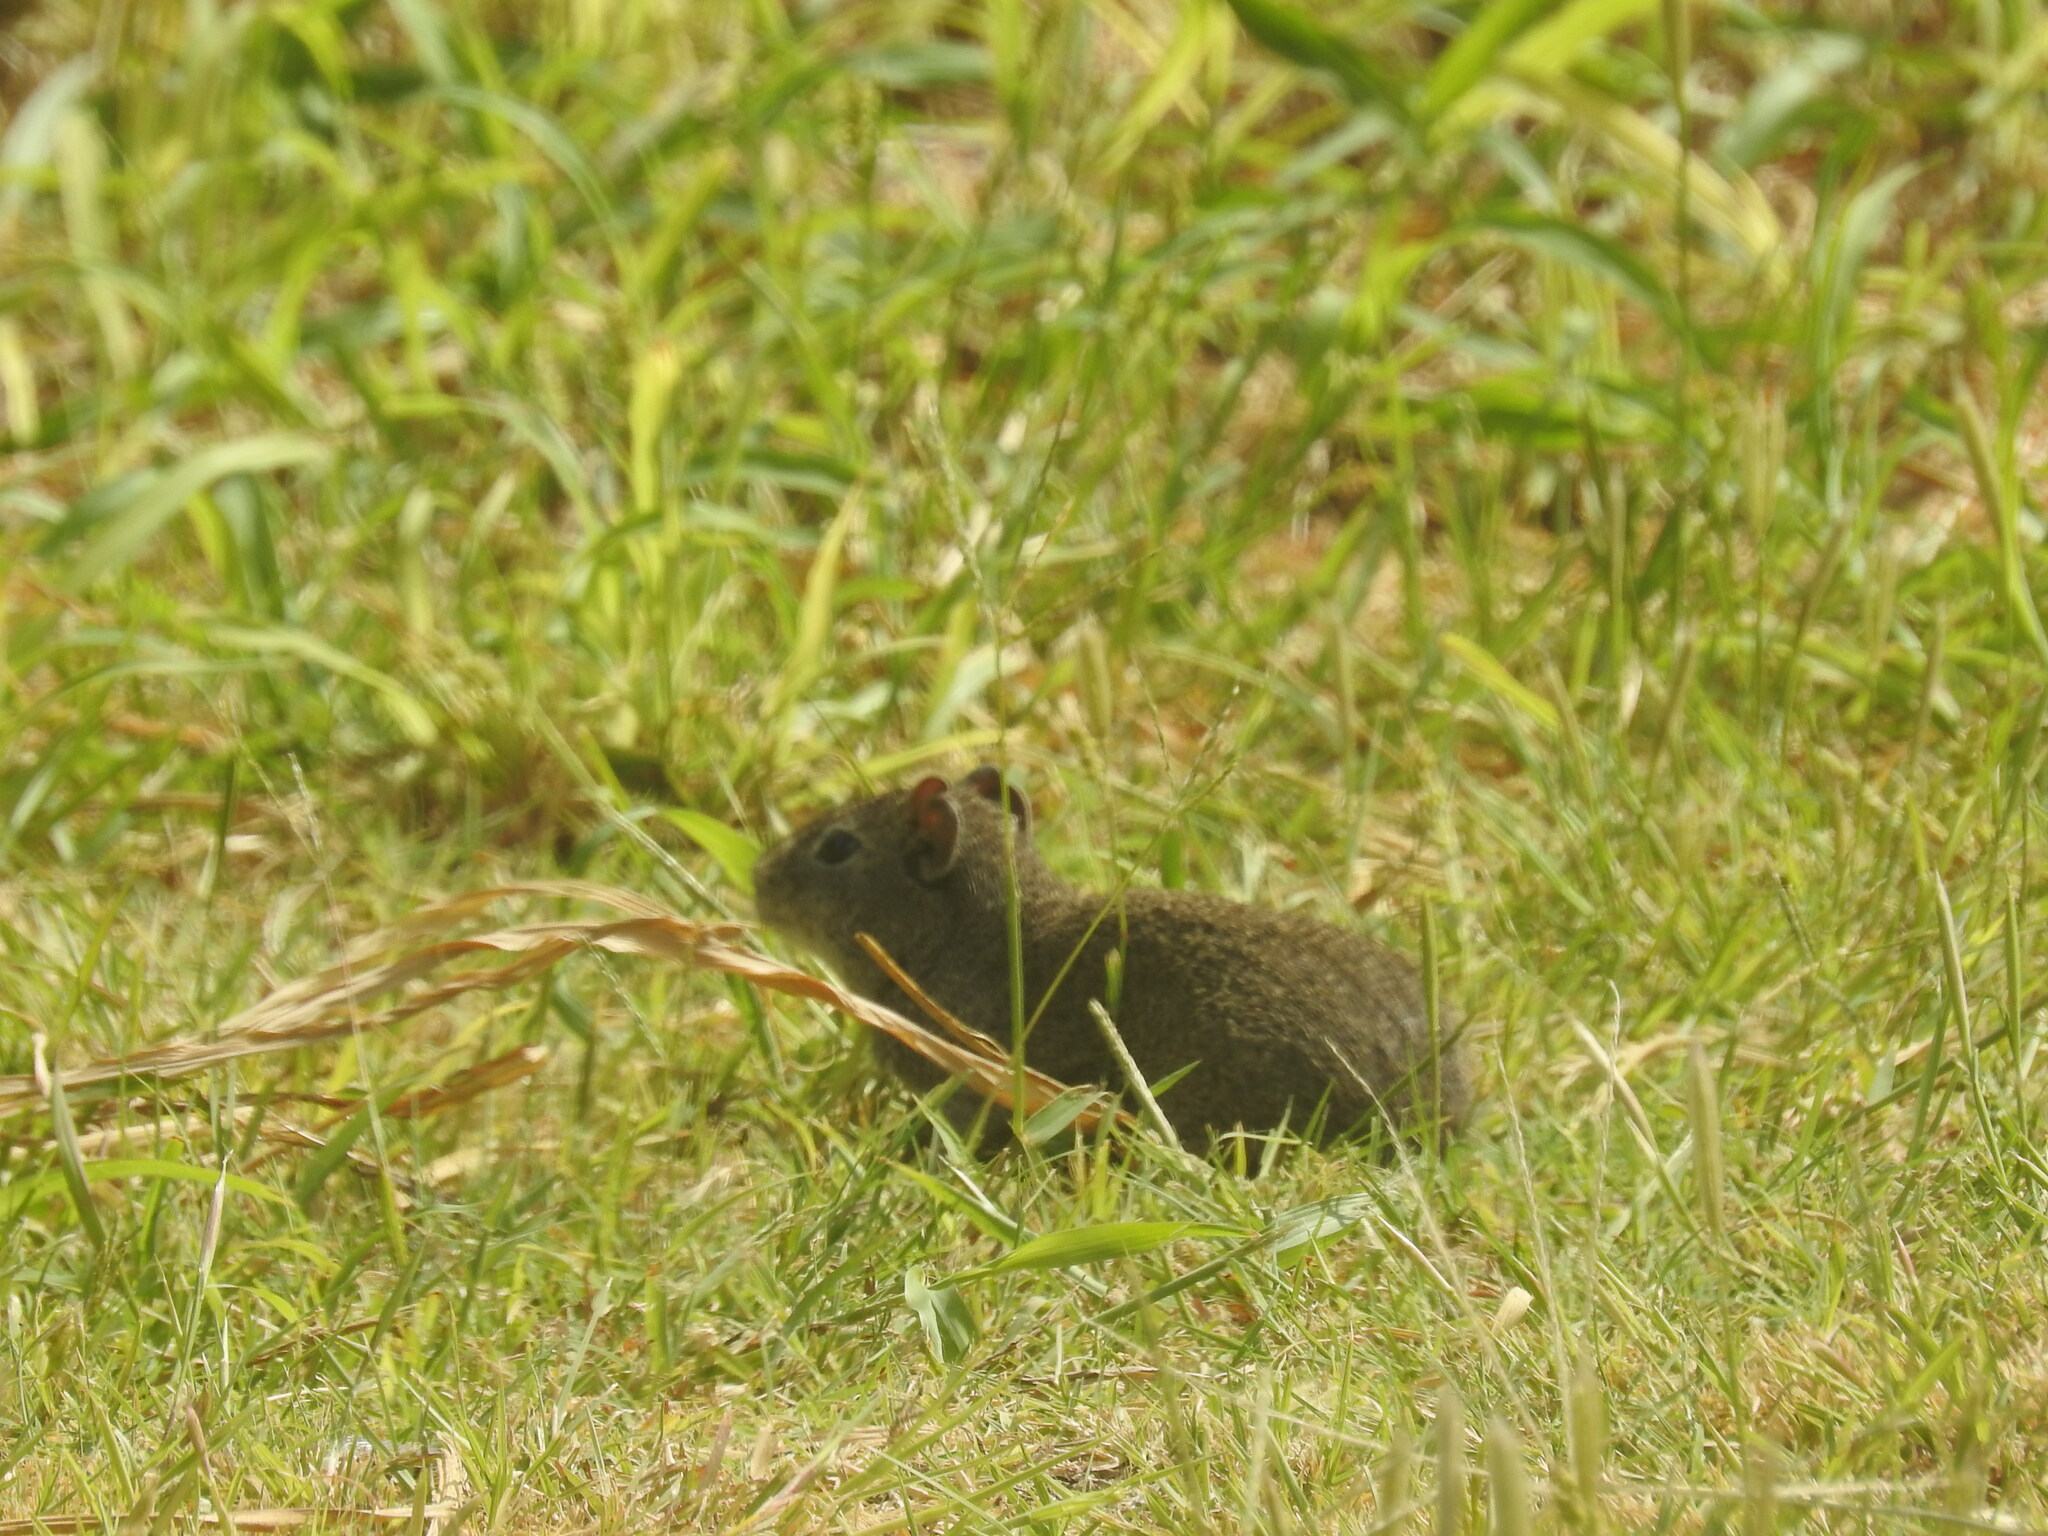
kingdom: Animalia
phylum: Chordata
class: Mammalia
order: Rodentia
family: Caviidae
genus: Cavia
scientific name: Cavia aperea
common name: Brazilian guinea pig
